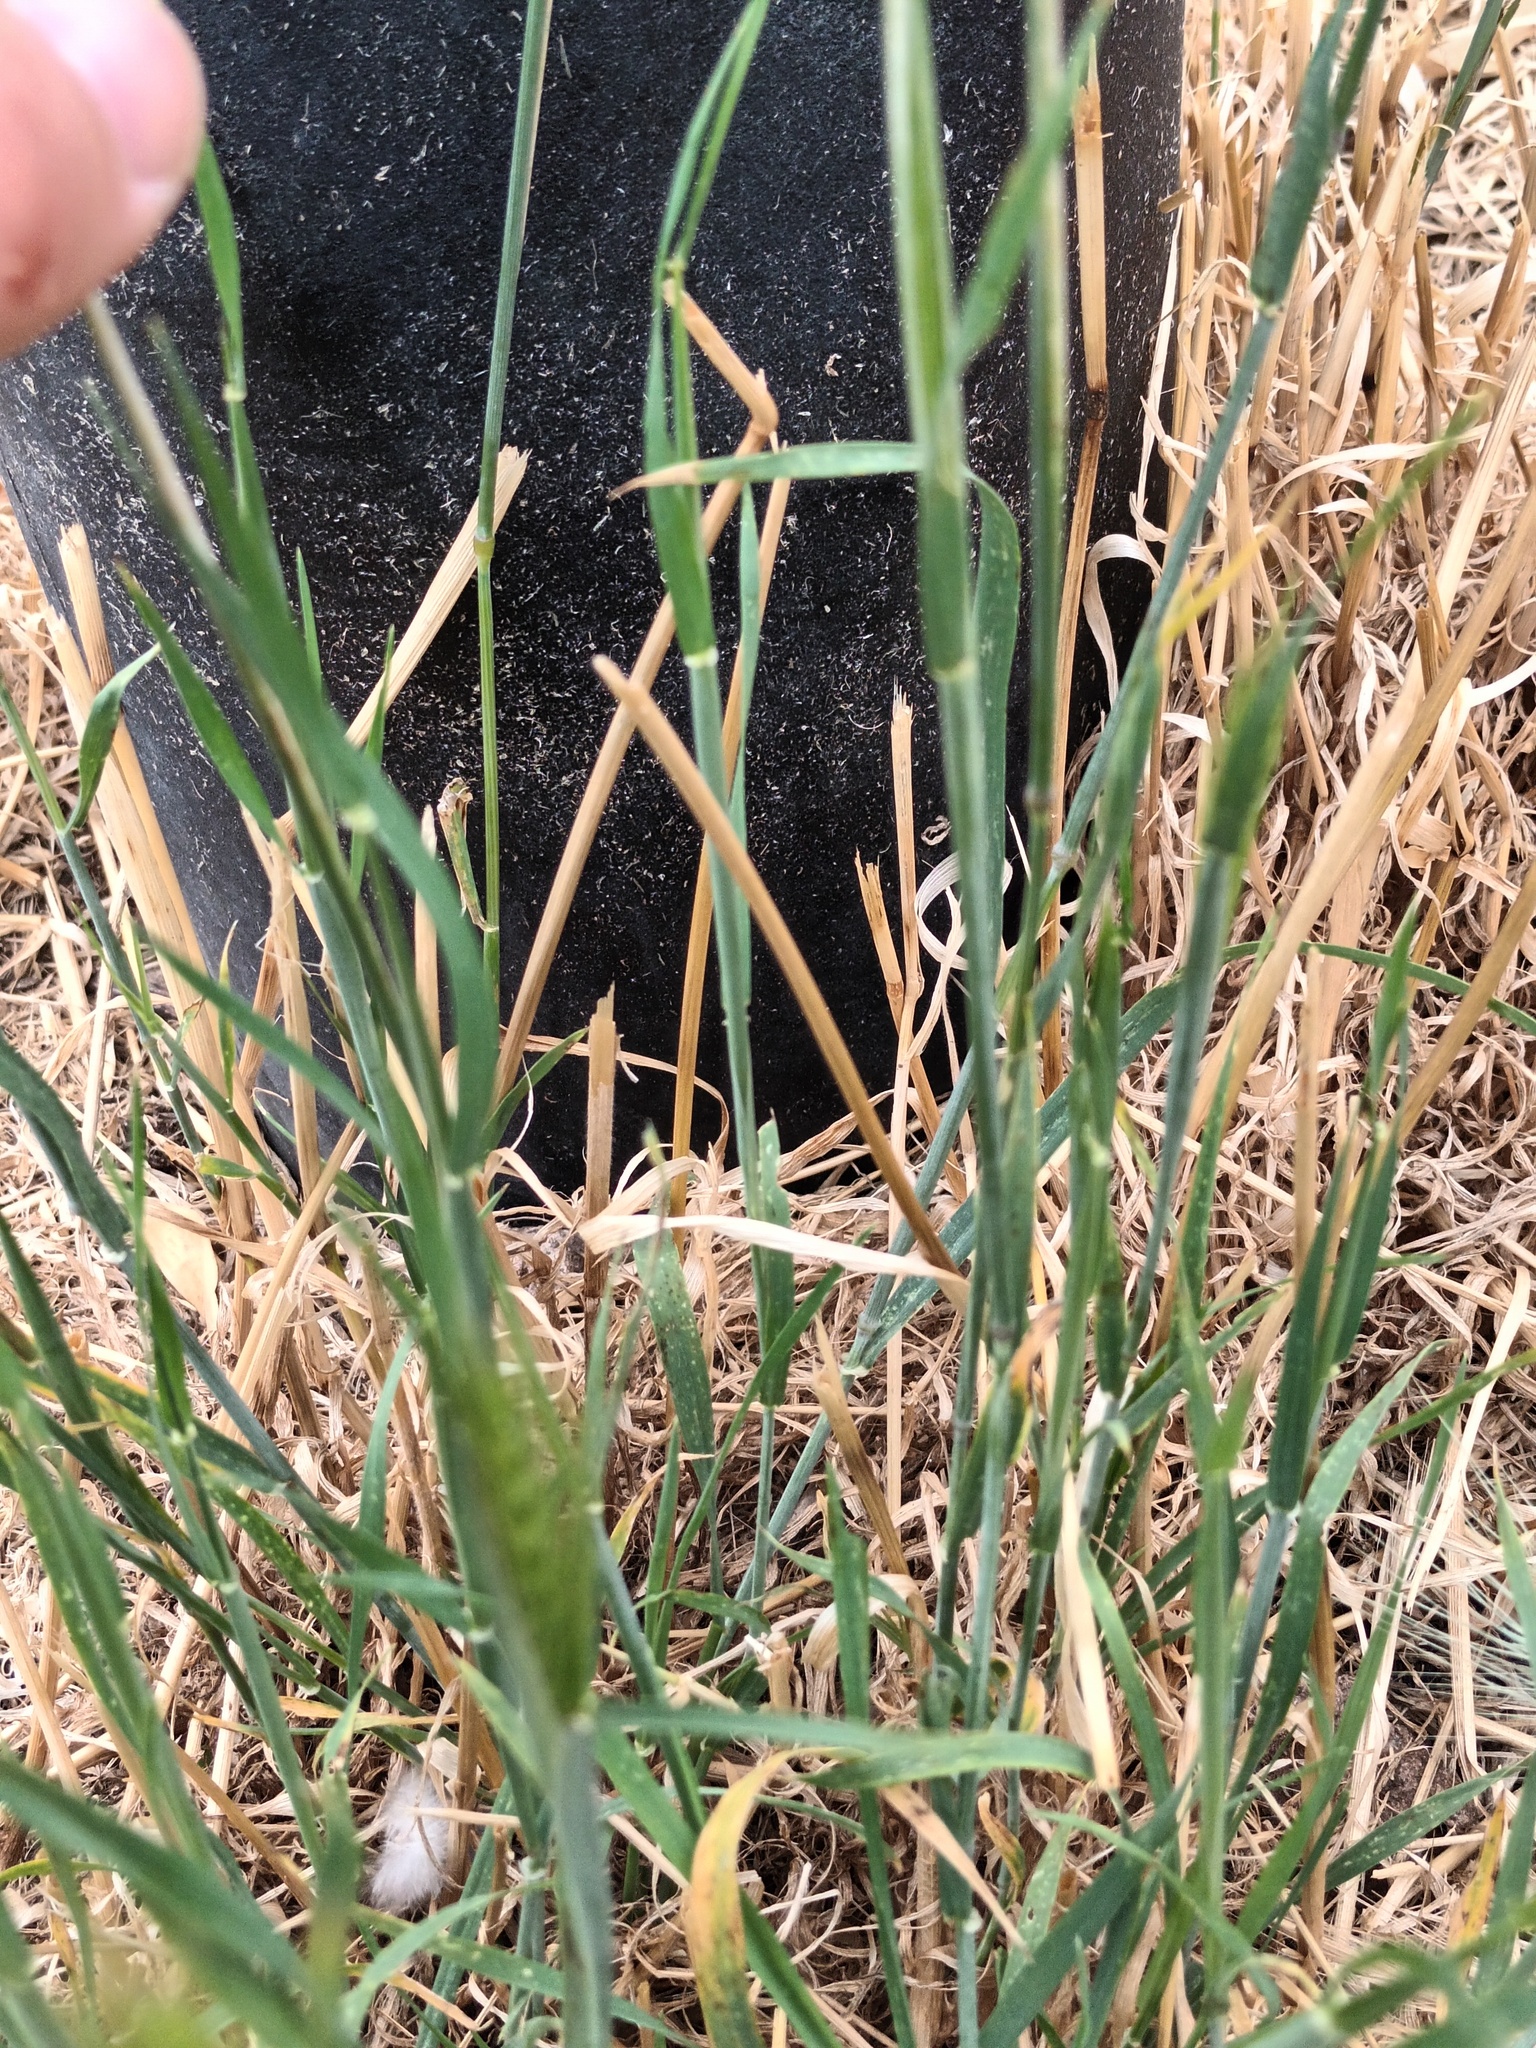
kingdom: Plantae
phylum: Tracheophyta
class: Liliopsida
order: Poales
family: Poaceae
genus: Hordeum
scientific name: Hordeum murinum
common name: Wall barley
